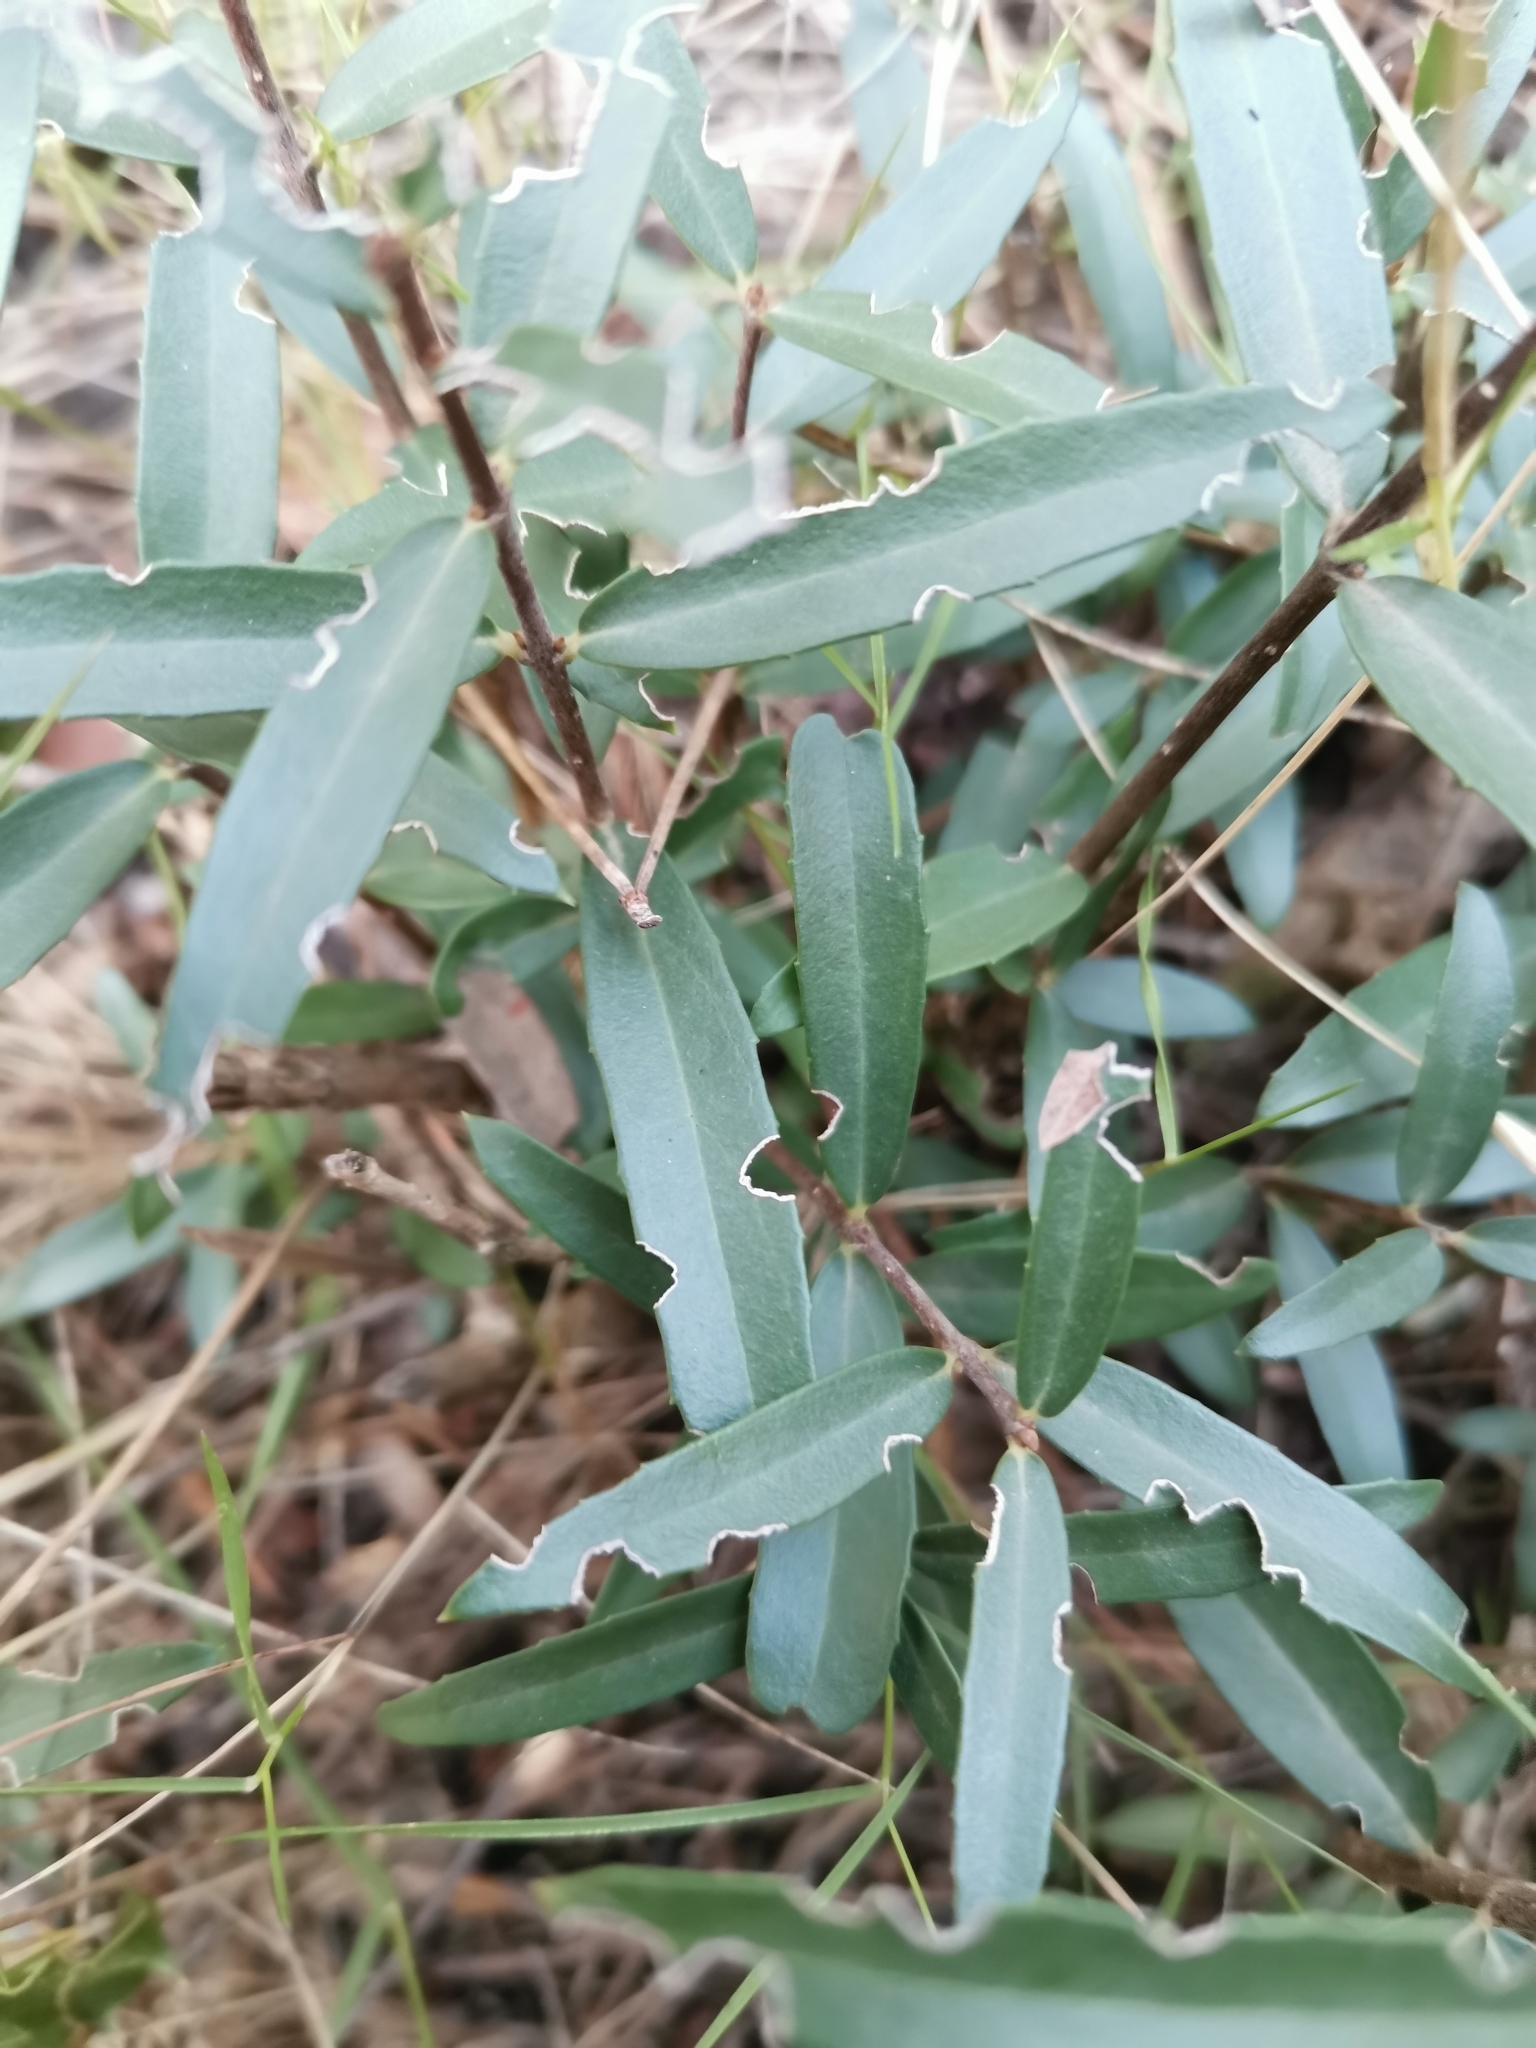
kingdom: Plantae
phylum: Tracheophyta
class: Magnoliopsida
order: Lamiales
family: Oleaceae
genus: Phillyrea
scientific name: Phillyrea angustifolia
